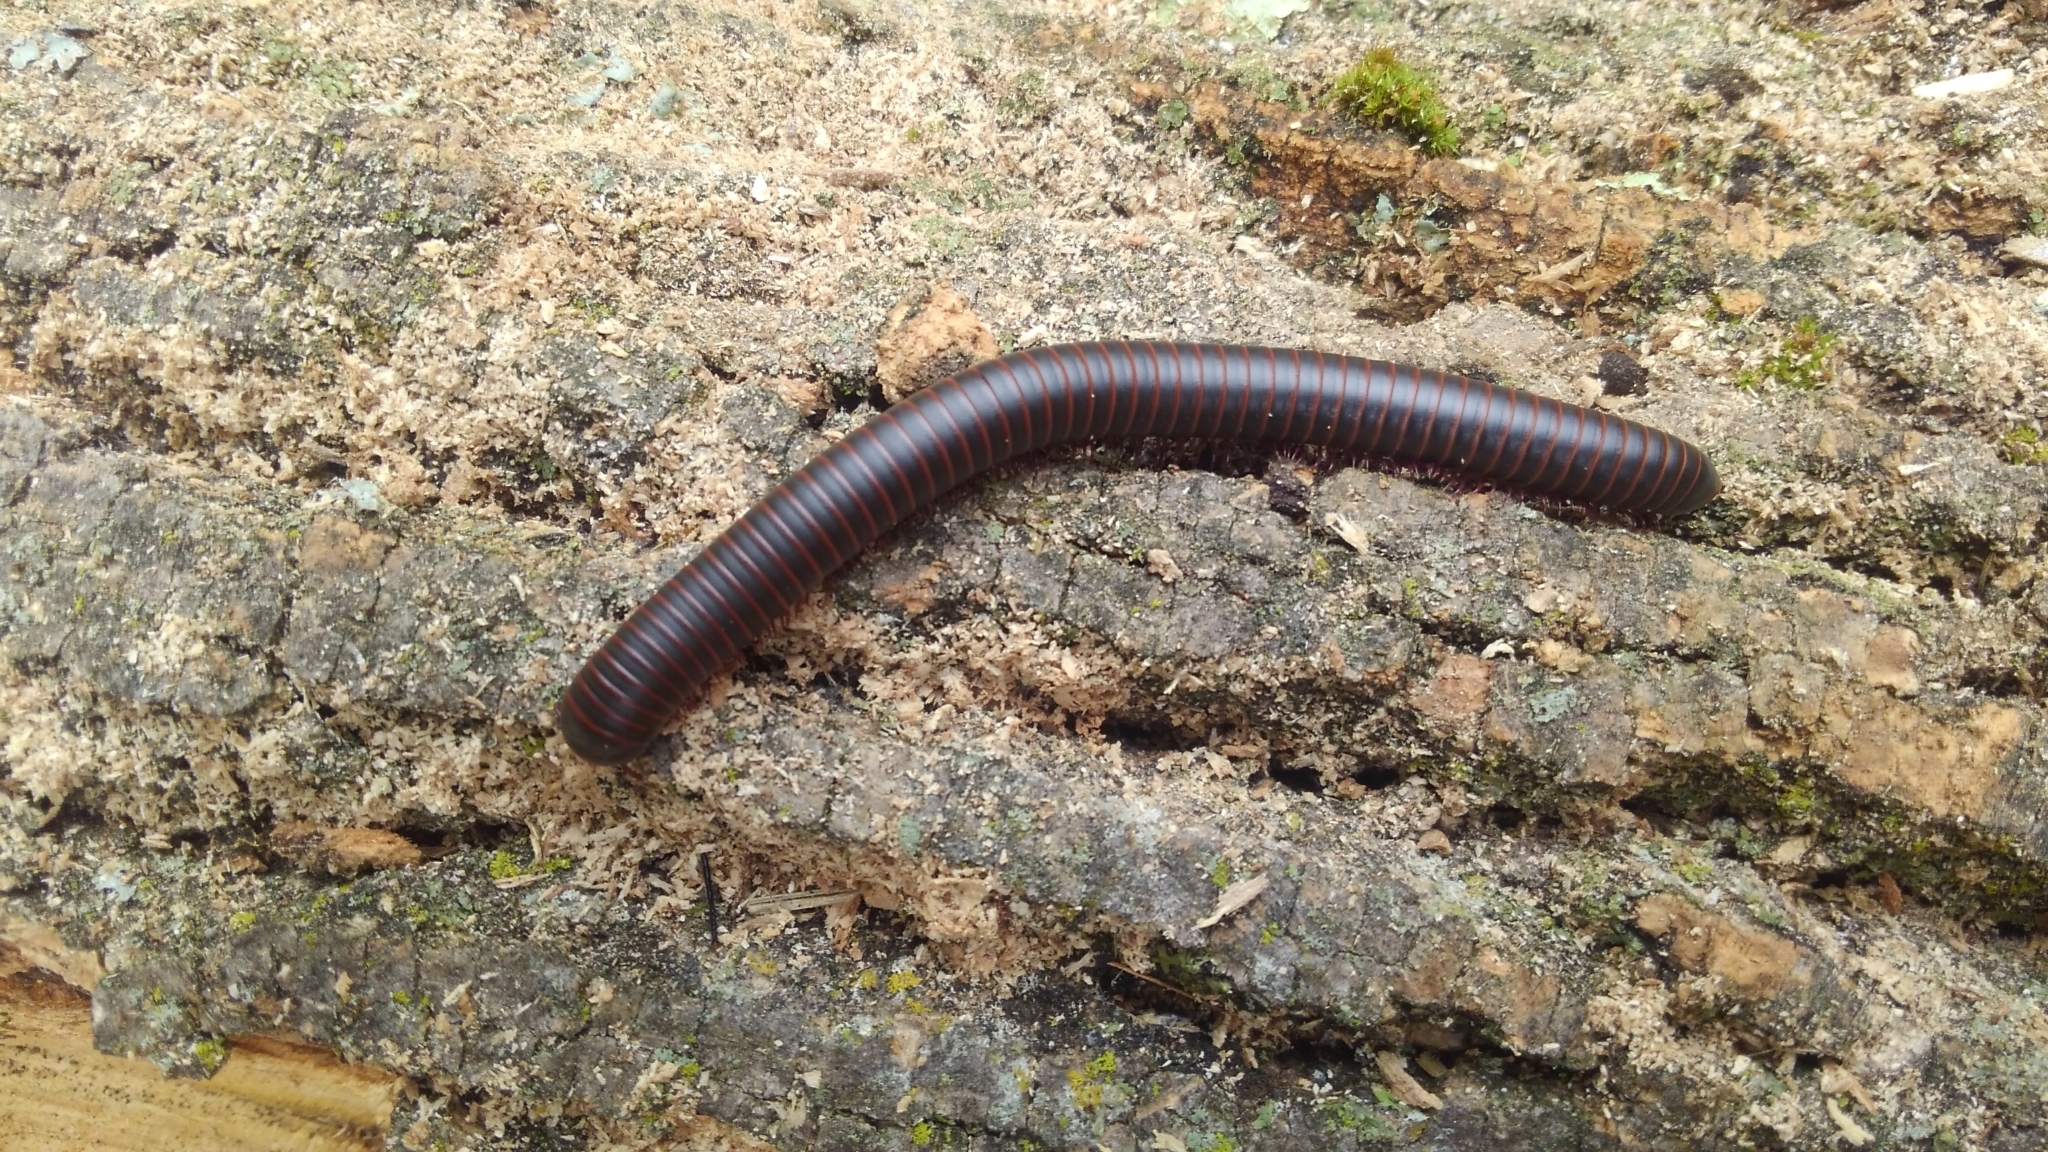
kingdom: Animalia
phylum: Arthropoda
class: Diplopoda
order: Spirobolida
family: Spirobolidae
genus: Narceus
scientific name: Narceus
